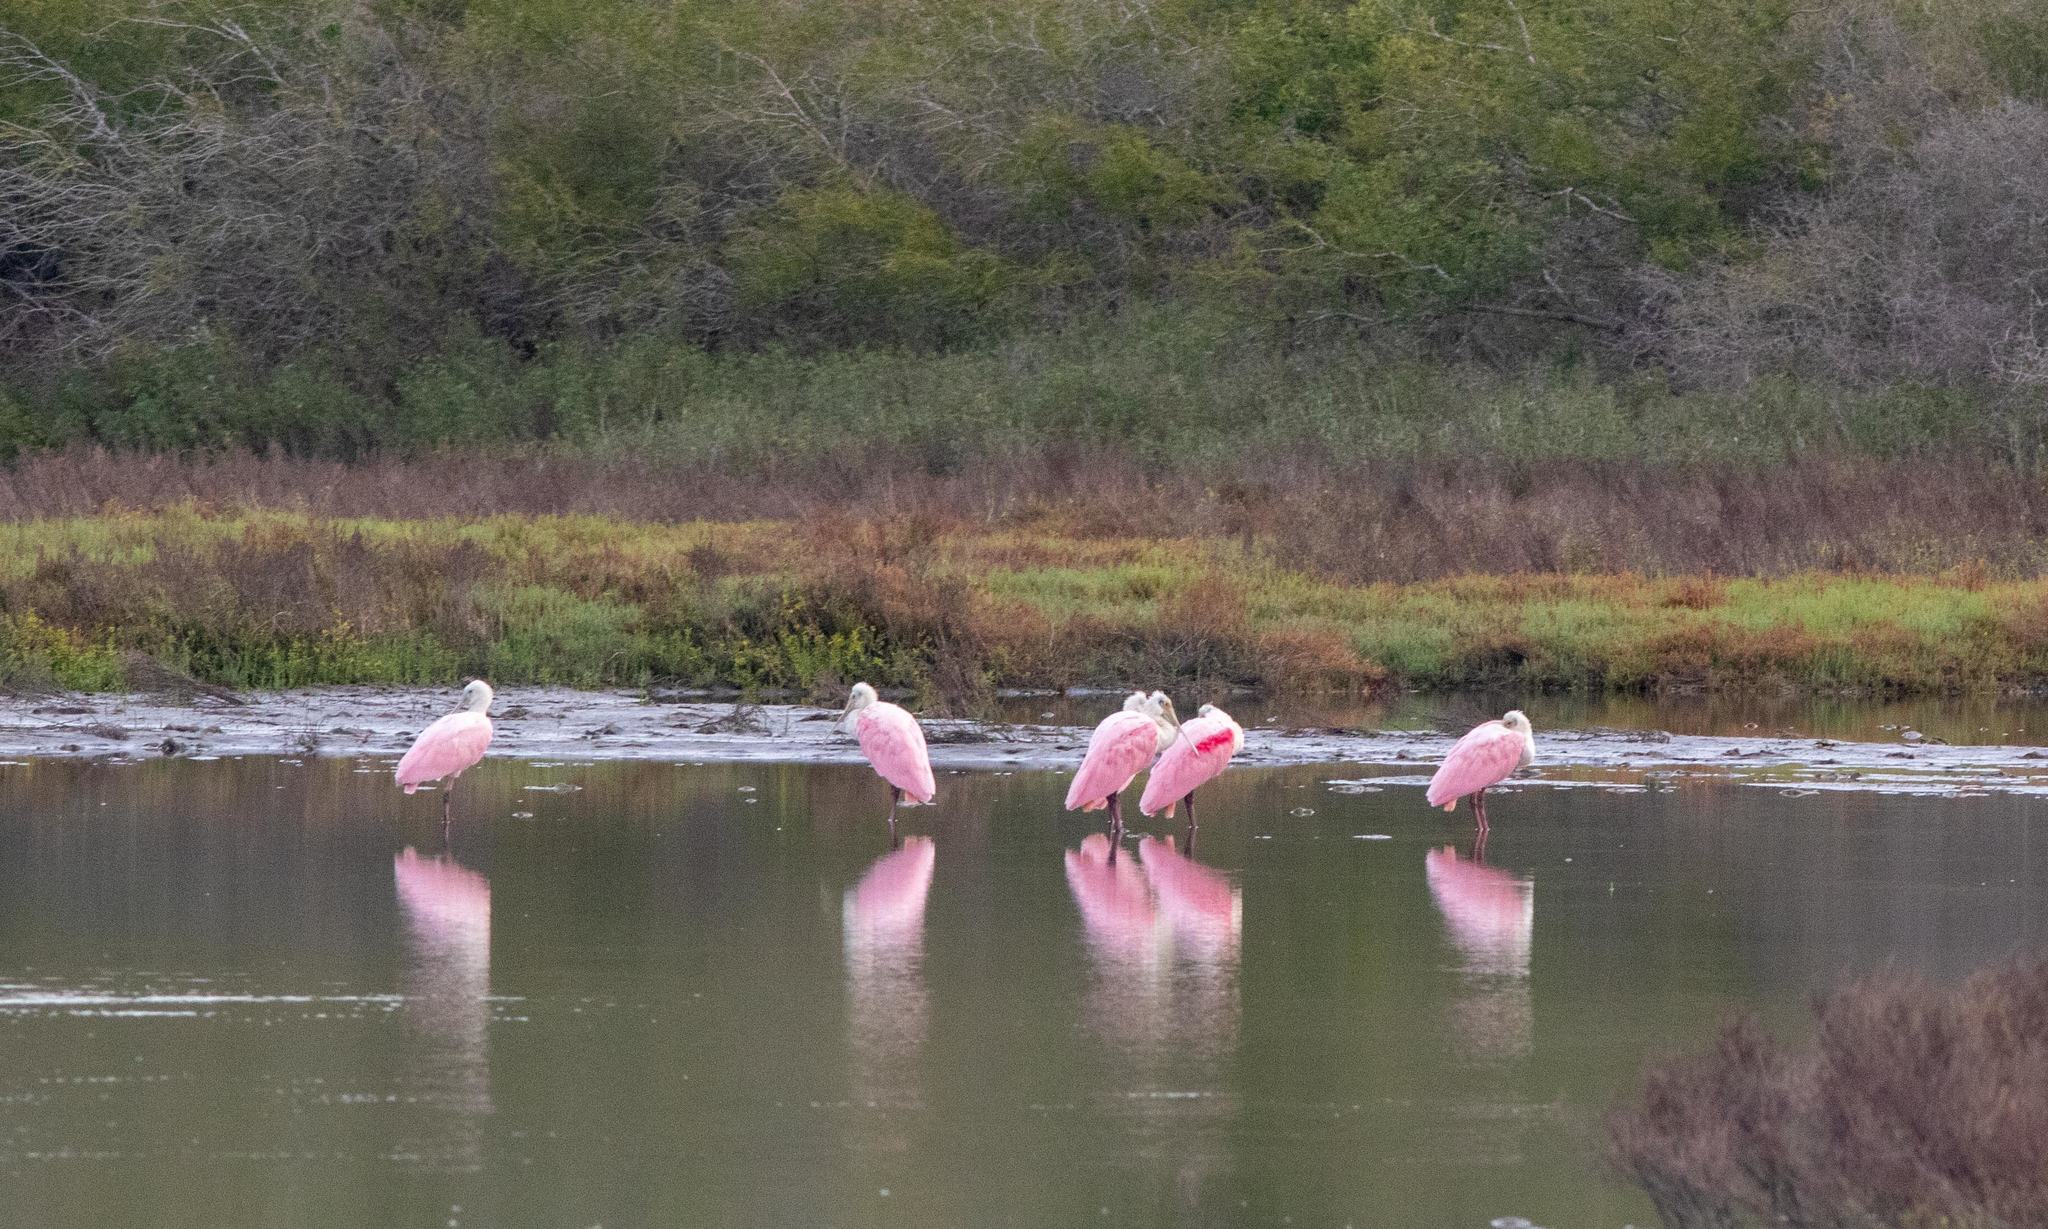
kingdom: Animalia
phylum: Chordata
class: Aves
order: Pelecaniformes
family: Threskiornithidae
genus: Platalea
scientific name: Platalea ajaja
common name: Roseate spoonbill
